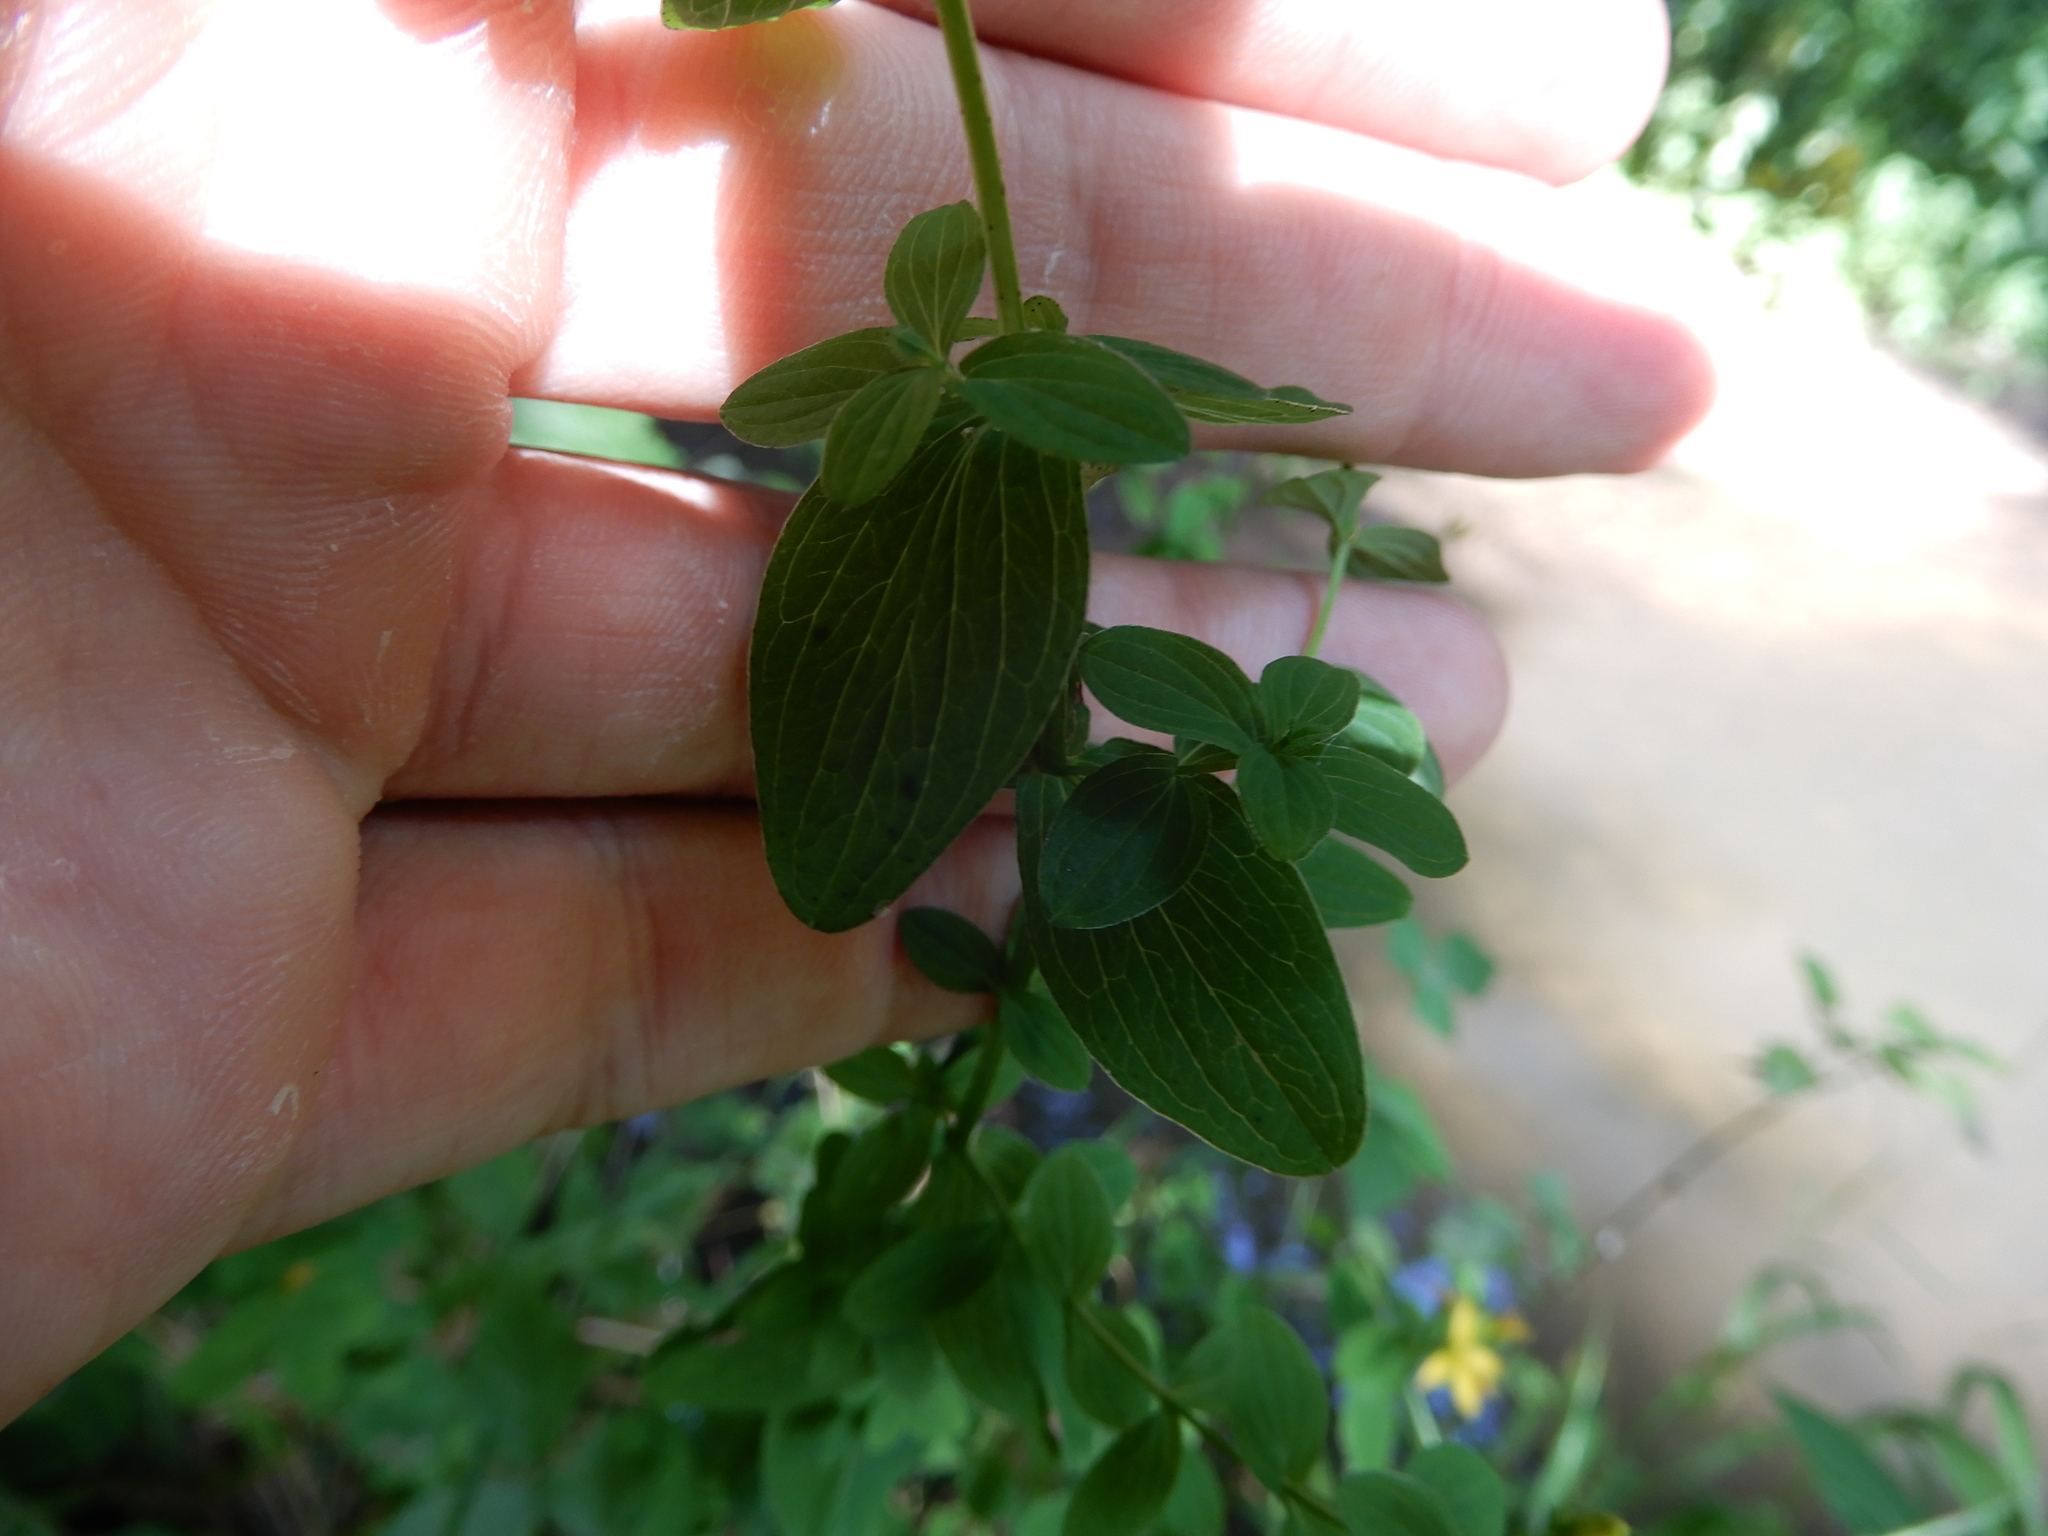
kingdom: Plantae
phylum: Tracheophyta
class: Magnoliopsida
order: Malpighiales
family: Hypericaceae
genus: Hypericum
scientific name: Hypericum tetrapterum
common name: Square-stalked st. john's-wort
